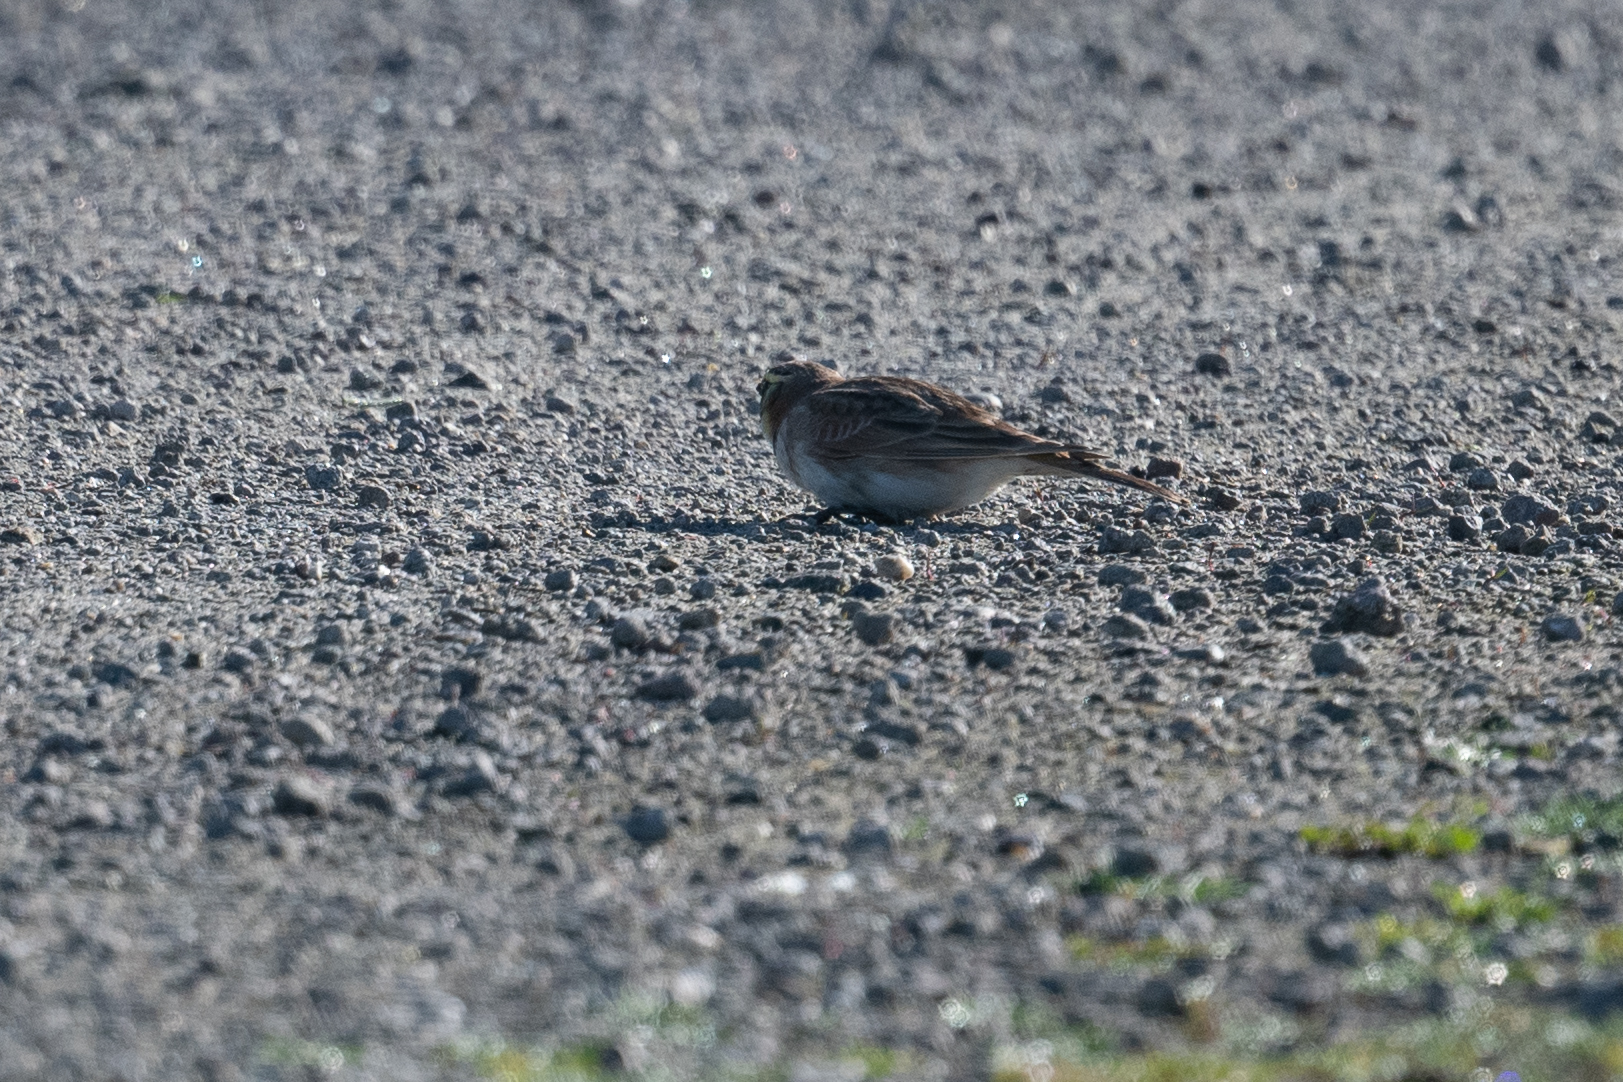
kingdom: Animalia
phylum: Chordata
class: Aves
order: Passeriformes
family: Alaudidae
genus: Eremophila
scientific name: Eremophila alpestris
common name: Horned lark
